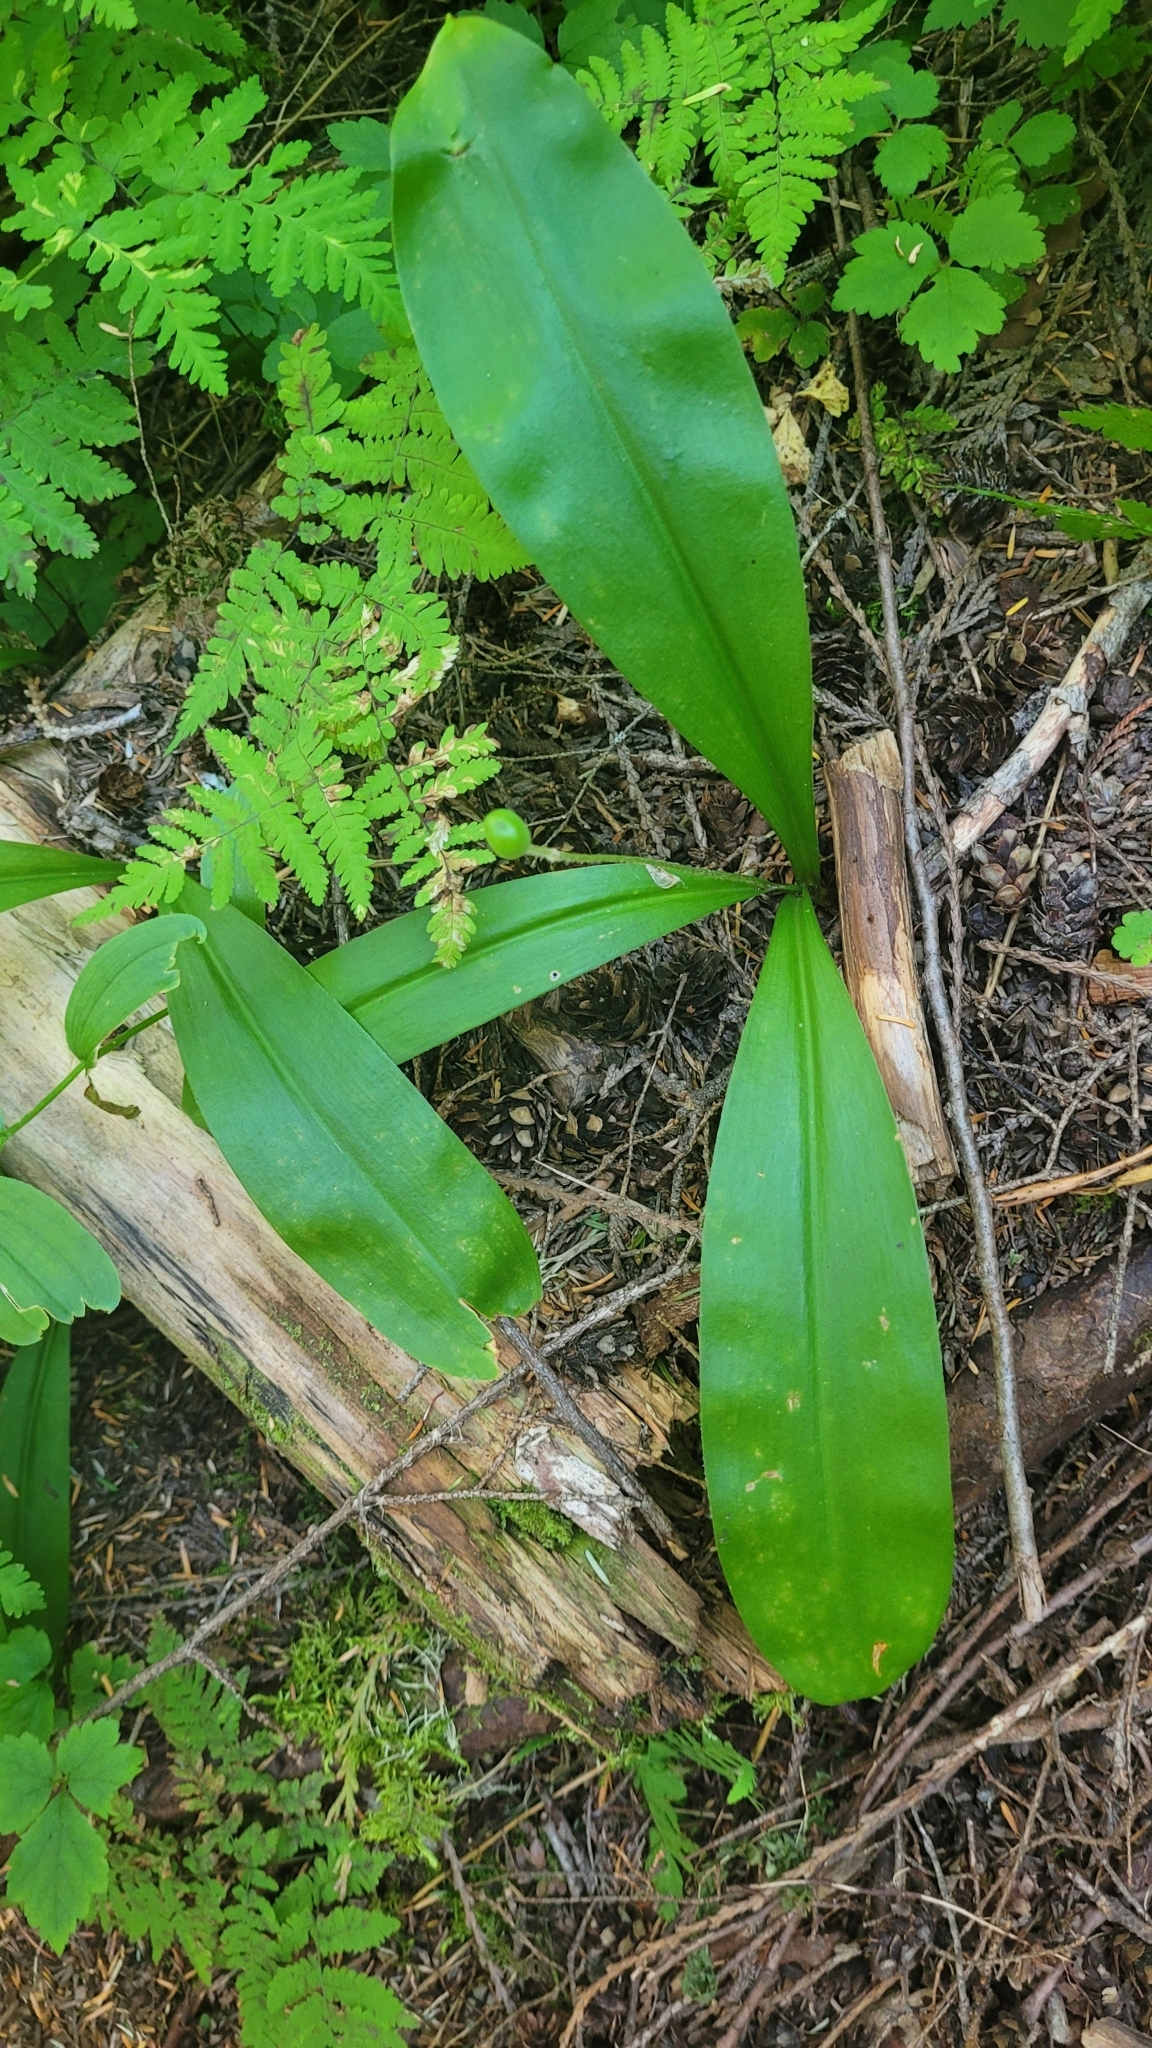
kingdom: Plantae
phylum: Tracheophyta
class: Liliopsida
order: Liliales
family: Liliaceae
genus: Clintonia
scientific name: Clintonia uniflora
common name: Queen's cup
